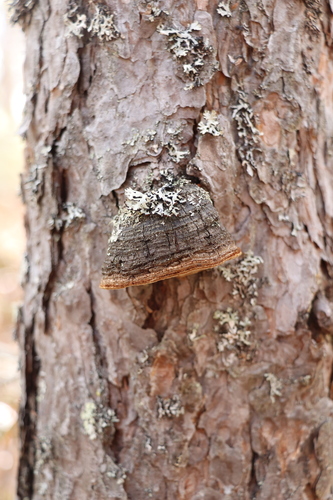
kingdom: Fungi
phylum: Basidiomycota
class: Agaricomycetes
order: Hymenochaetales
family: Hymenochaetaceae
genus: Porodaedalea
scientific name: Porodaedalea pini
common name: Pine bracket
